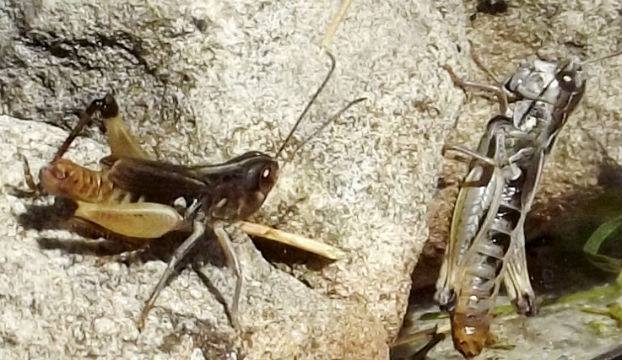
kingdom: Animalia
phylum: Arthropoda
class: Insecta
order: Orthoptera
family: Acrididae
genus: Rammeihippus
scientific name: Rammeihippus dinaricus
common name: Dinarian grasshopper
